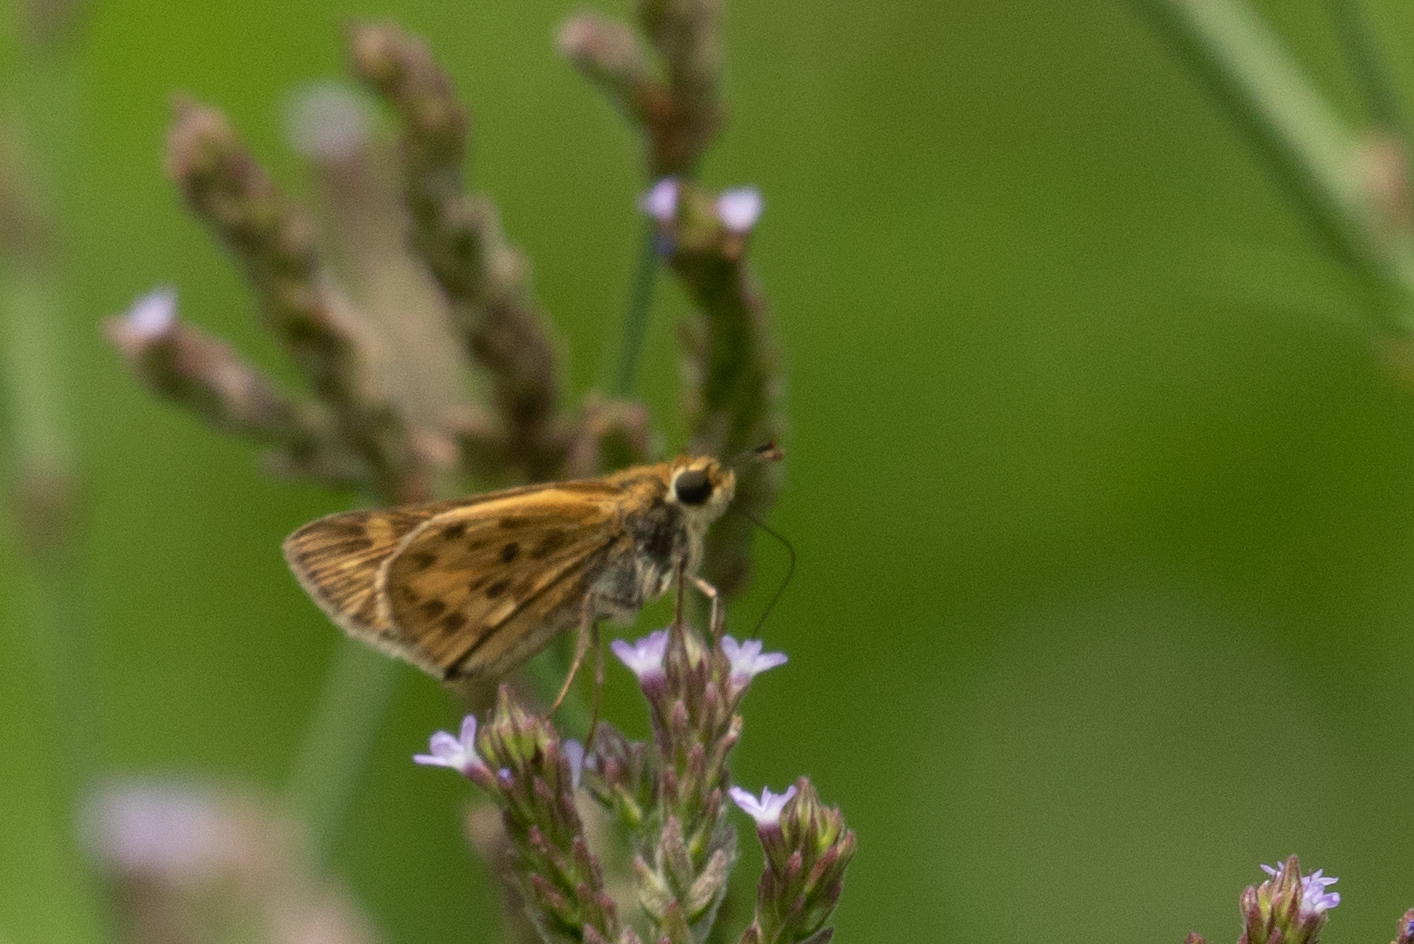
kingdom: Animalia
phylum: Arthropoda
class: Insecta
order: Lepidoptera
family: Hesperiidae
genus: Hylephila
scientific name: Hylephila phyleus
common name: Fiery skipper
